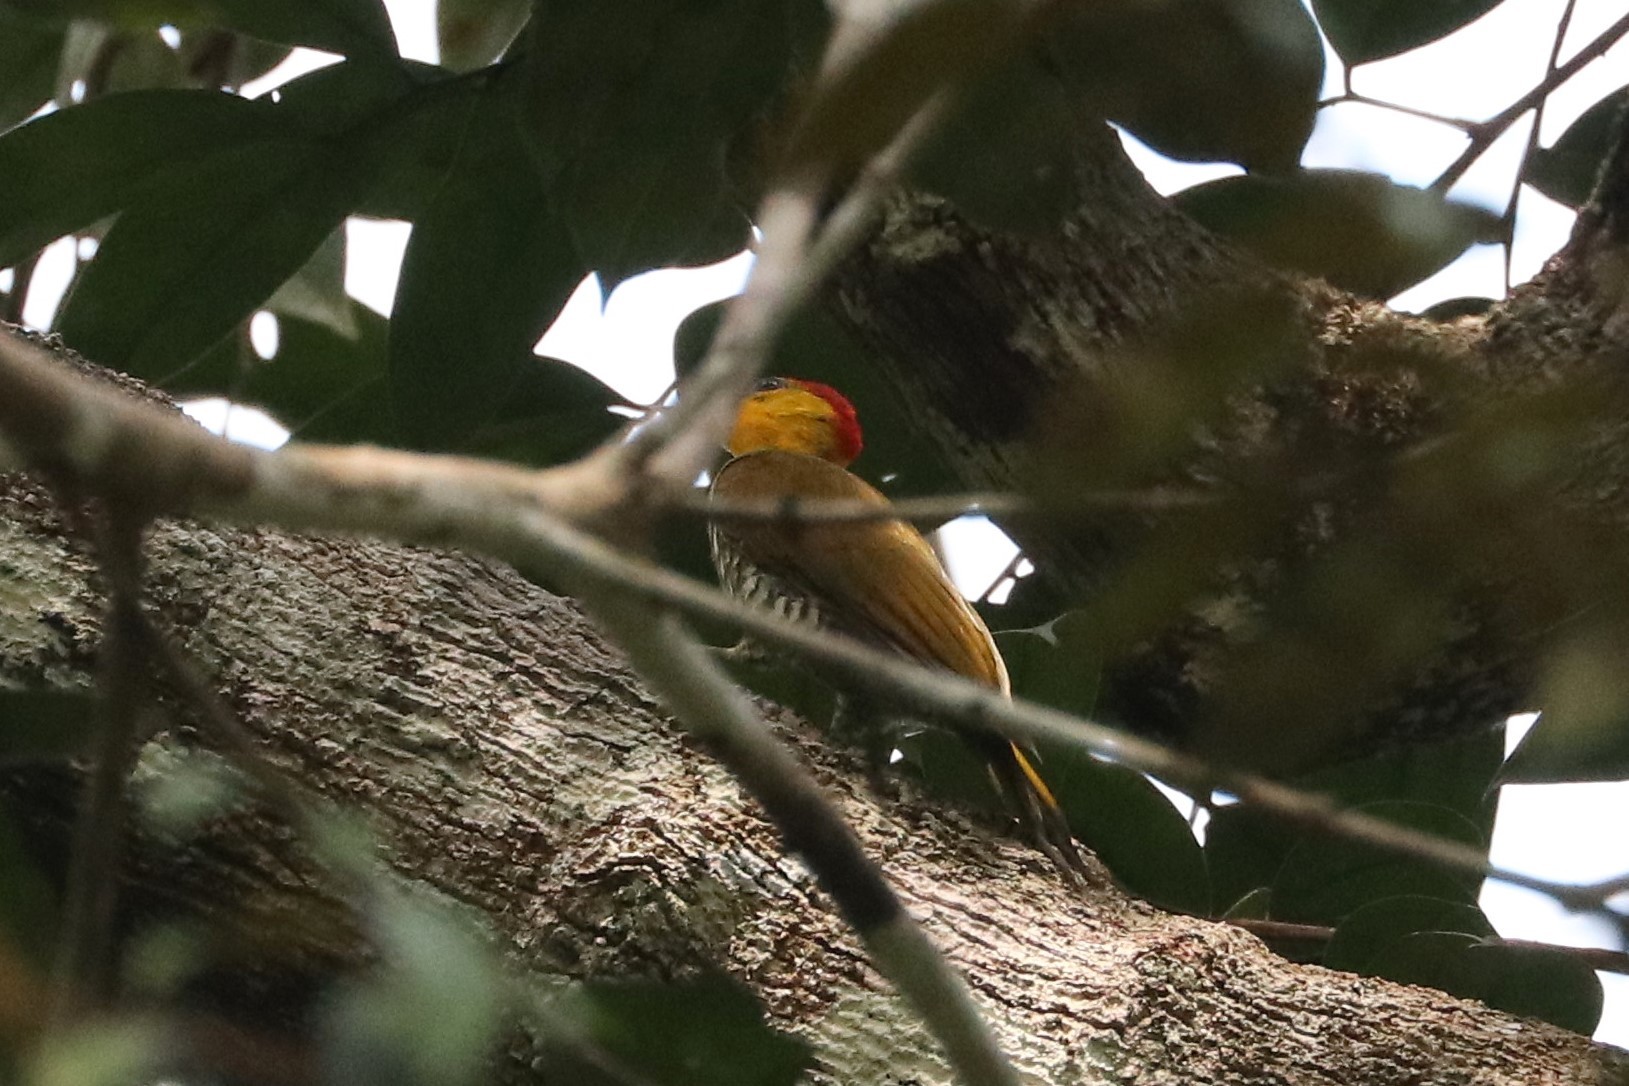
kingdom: Animalia
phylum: Chordata
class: Aves
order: Piciformes
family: Picidae
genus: Piculus
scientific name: Piculus flavigula
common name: Yellow-throated woodpecker
